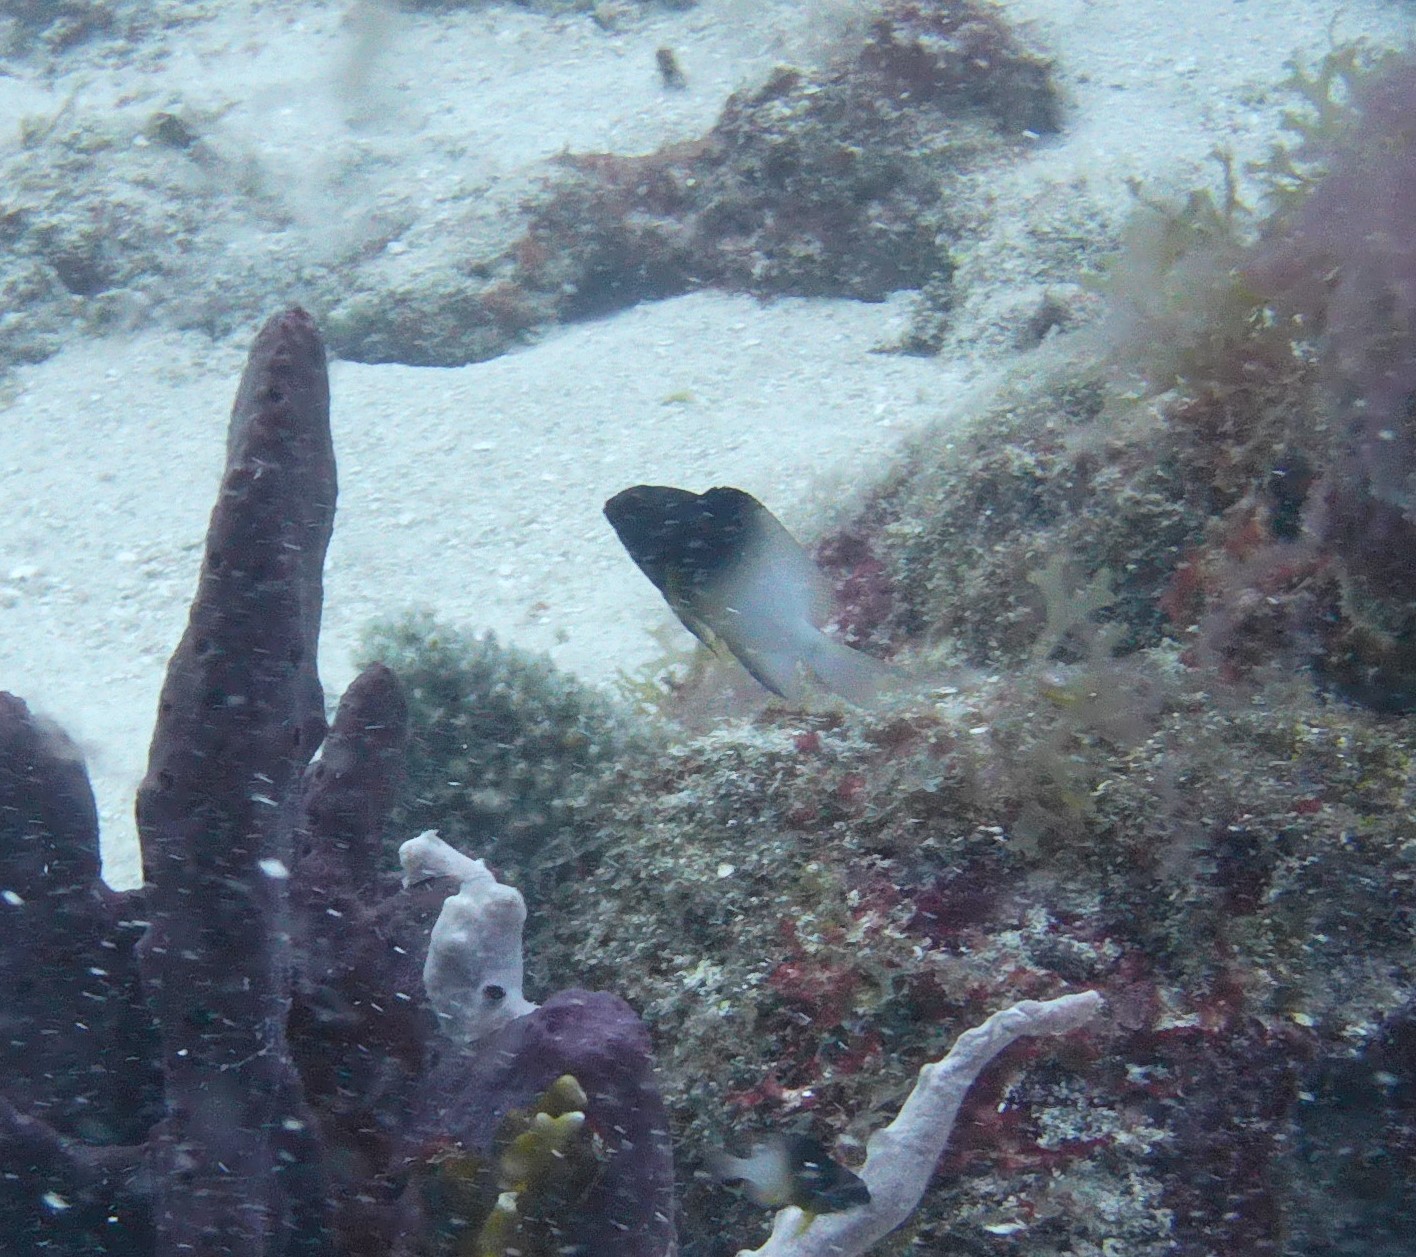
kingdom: Animalia
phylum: Chordata
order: Perciformes
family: Pomacentridae
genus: Stegastes
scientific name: Stegastes partitus
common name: Bicolor damselfish
